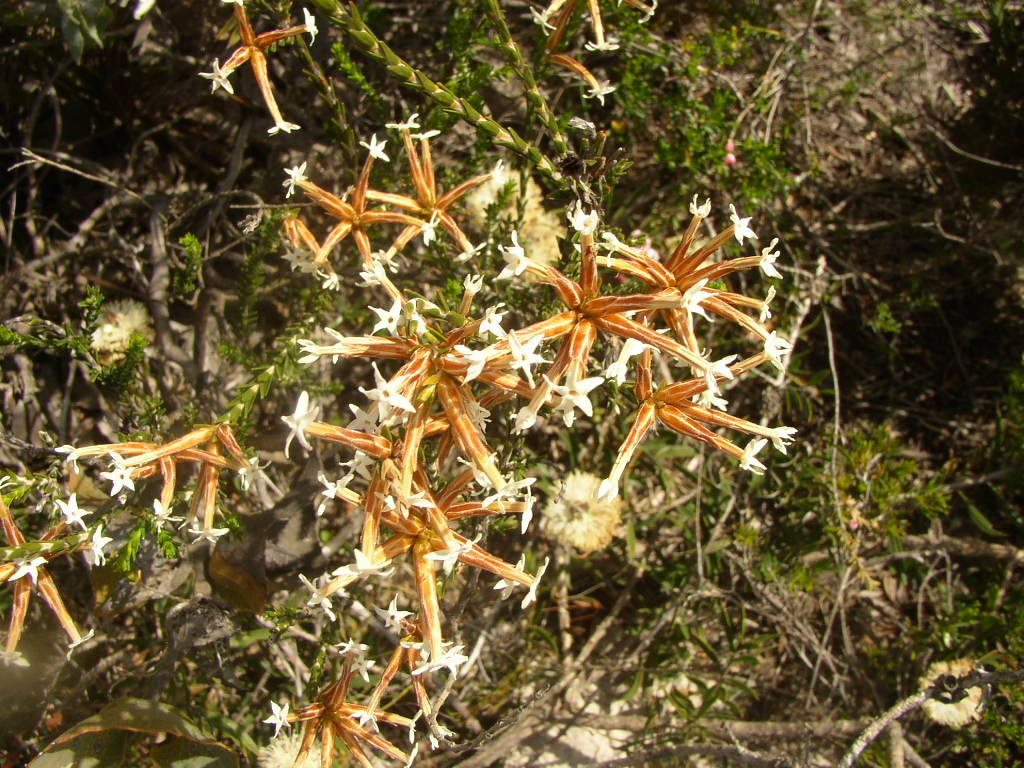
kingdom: Plantae
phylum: Tracheophyta
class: Magnoliopsida
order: Ericales
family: Ericaceae
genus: Lysinema
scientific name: Lysinema pentapetalum
